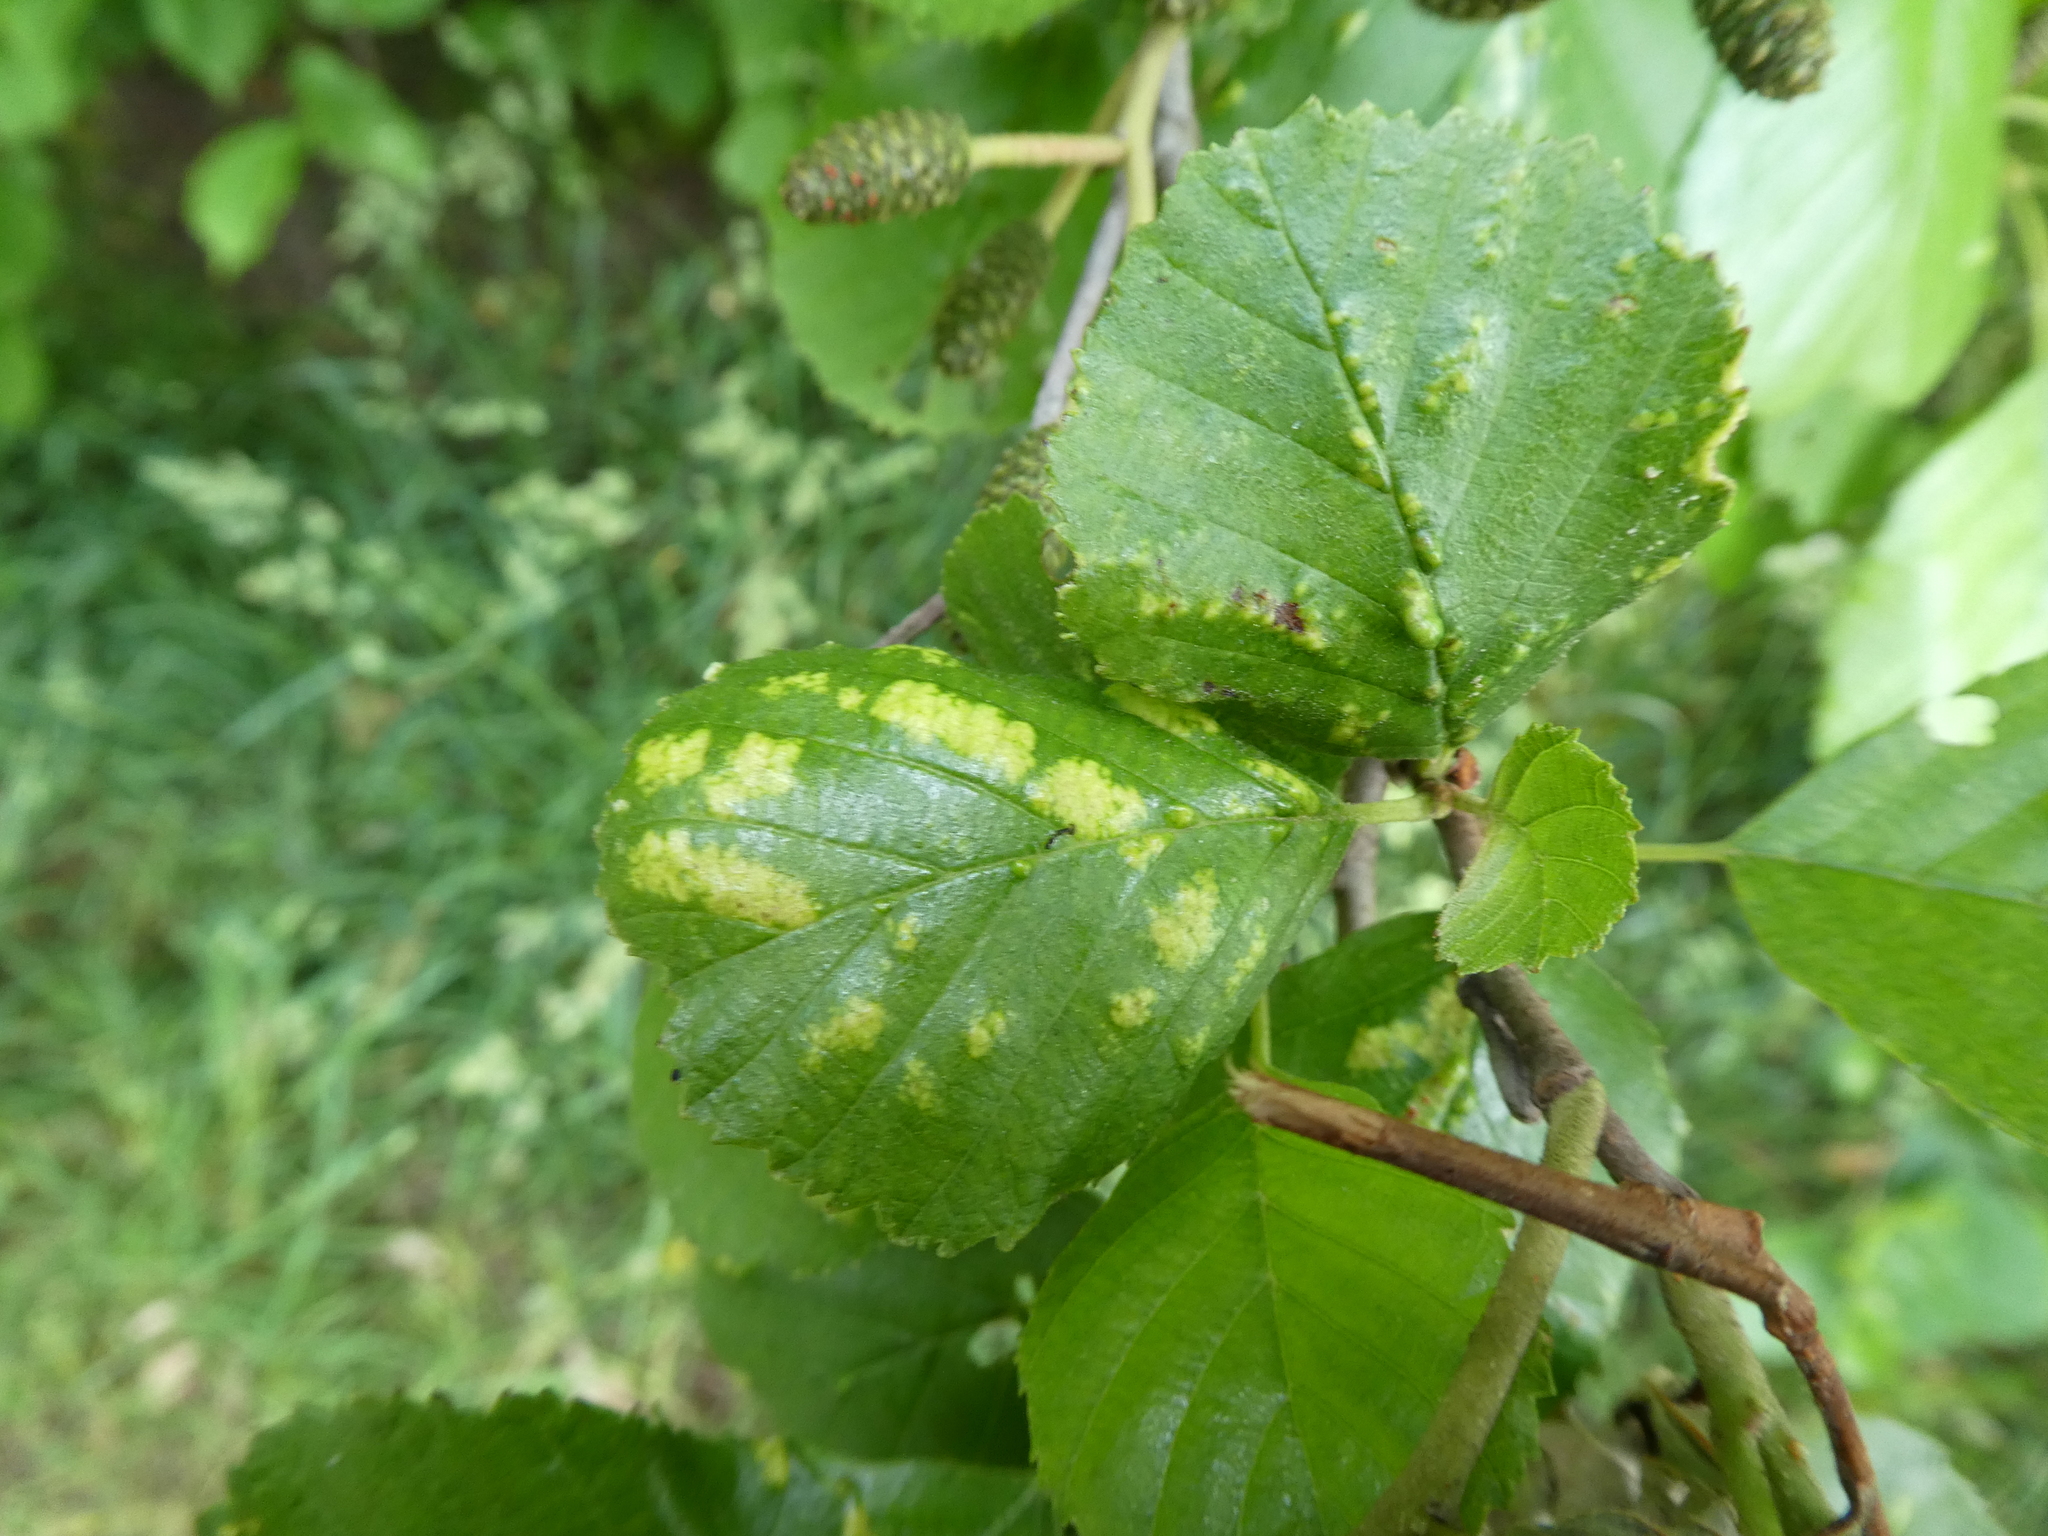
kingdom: Animalia
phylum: Arthropoda
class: Arachnida
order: Trombidiformes
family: Eriophyidae
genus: Acalitus
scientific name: Acalitus brevitarsus
